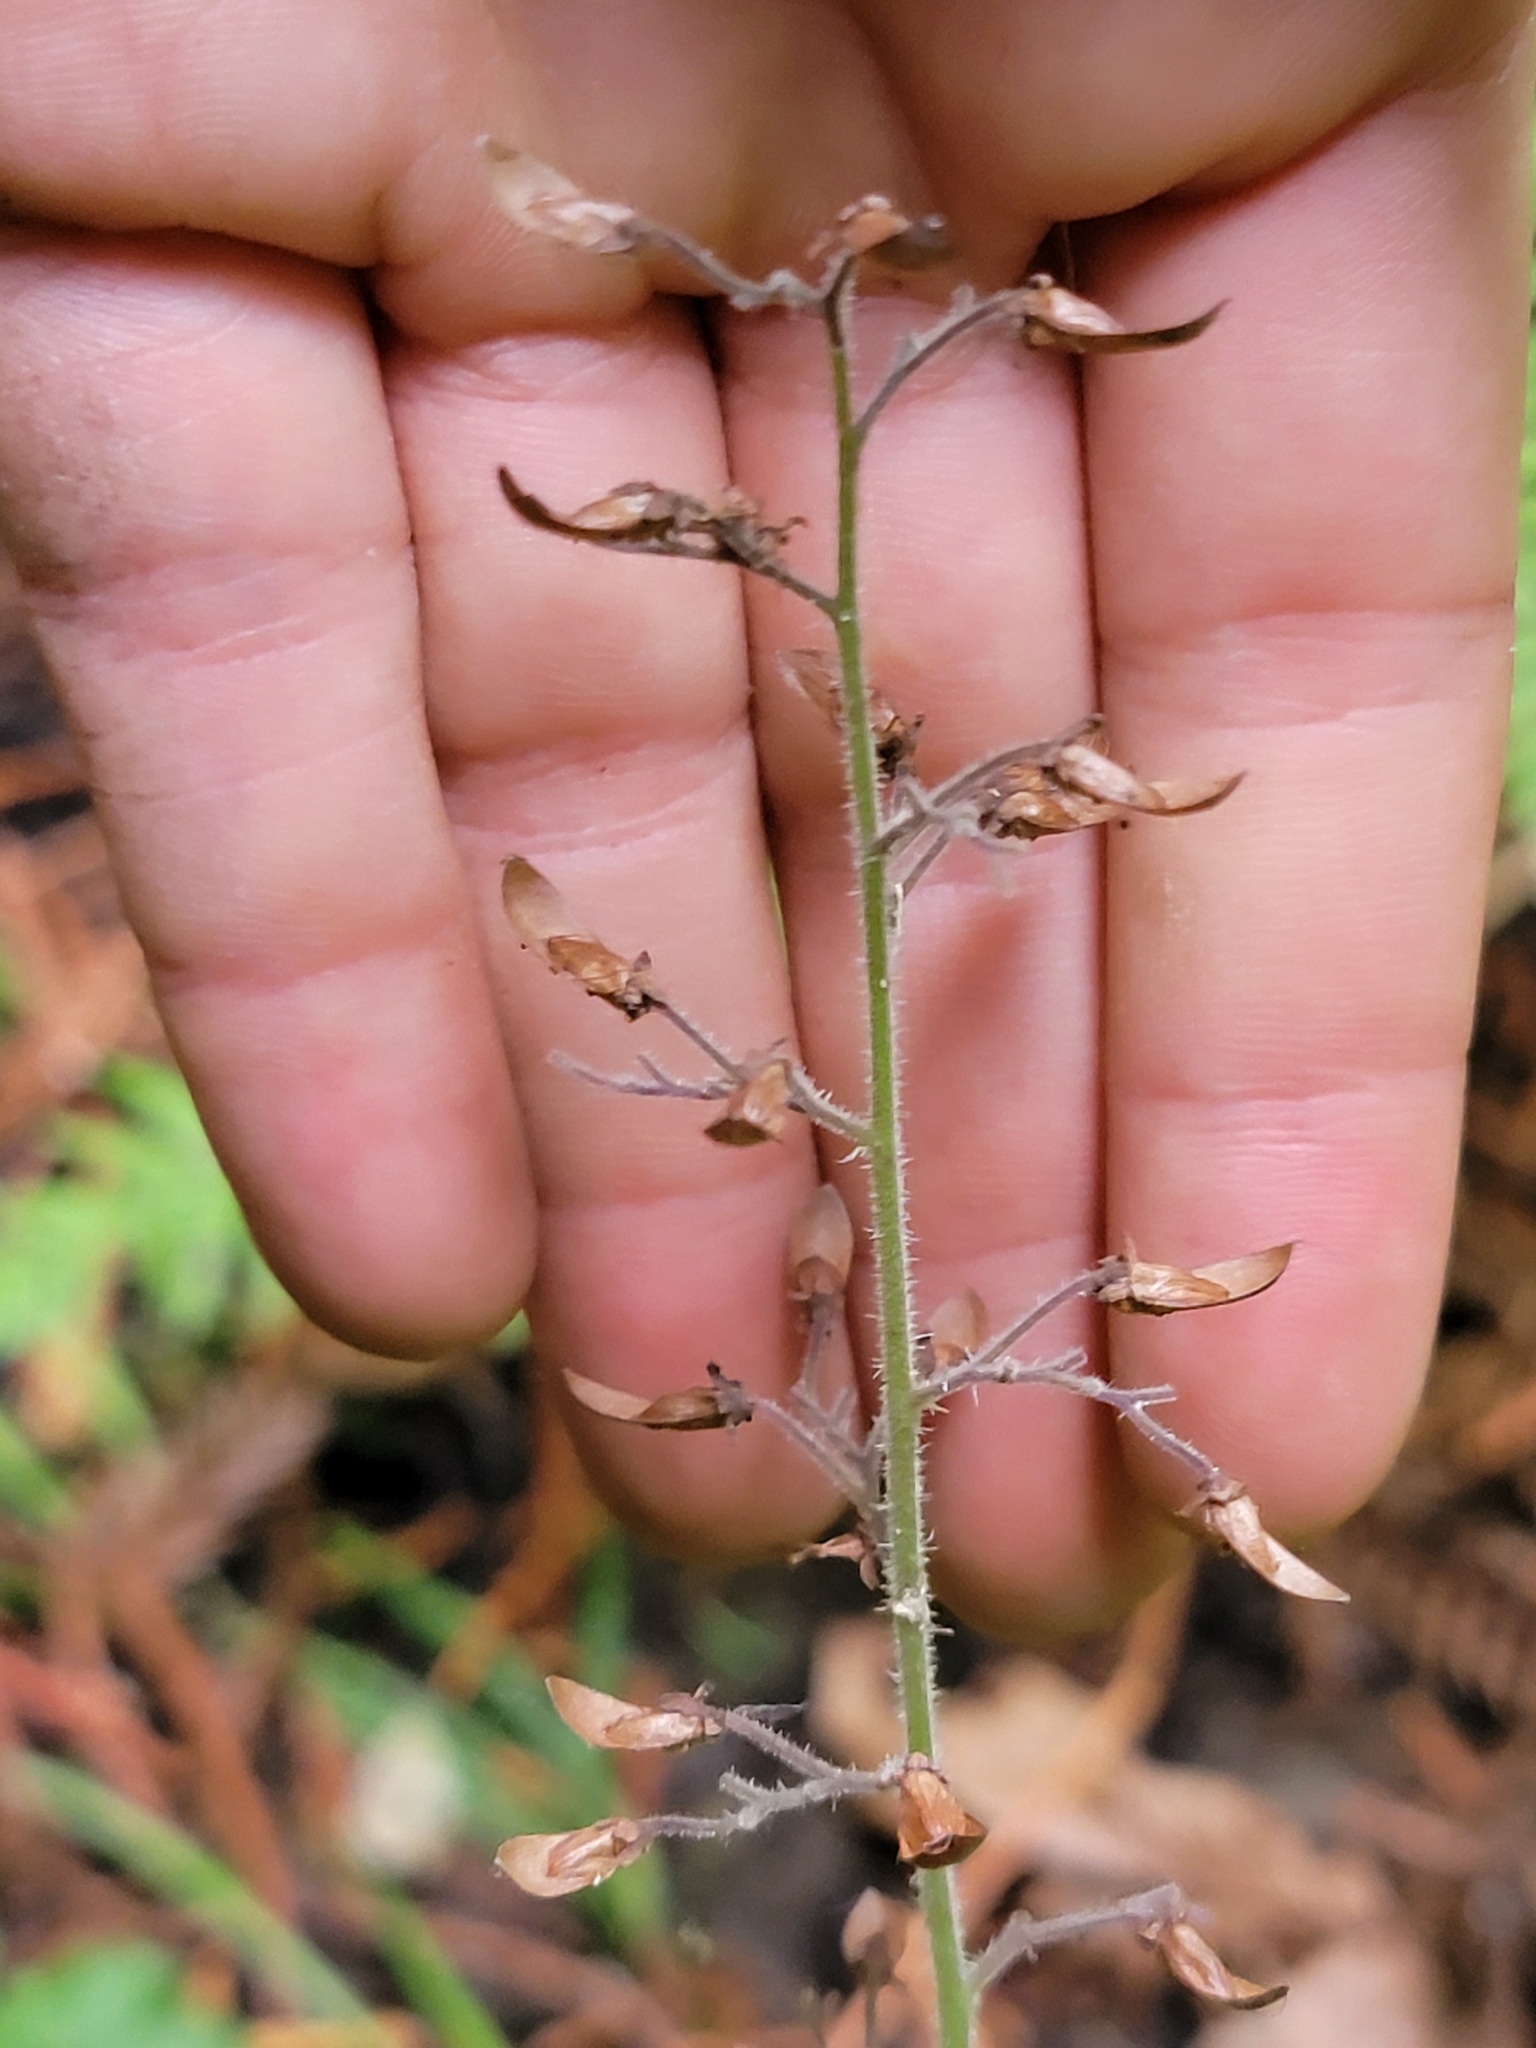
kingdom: Plantae
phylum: Tracheophyta
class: Magnoliopsida
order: Saxifragales
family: Saxifragaceae
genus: Tiarella
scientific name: Tiarella trifoliata
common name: Sugar-scoop
